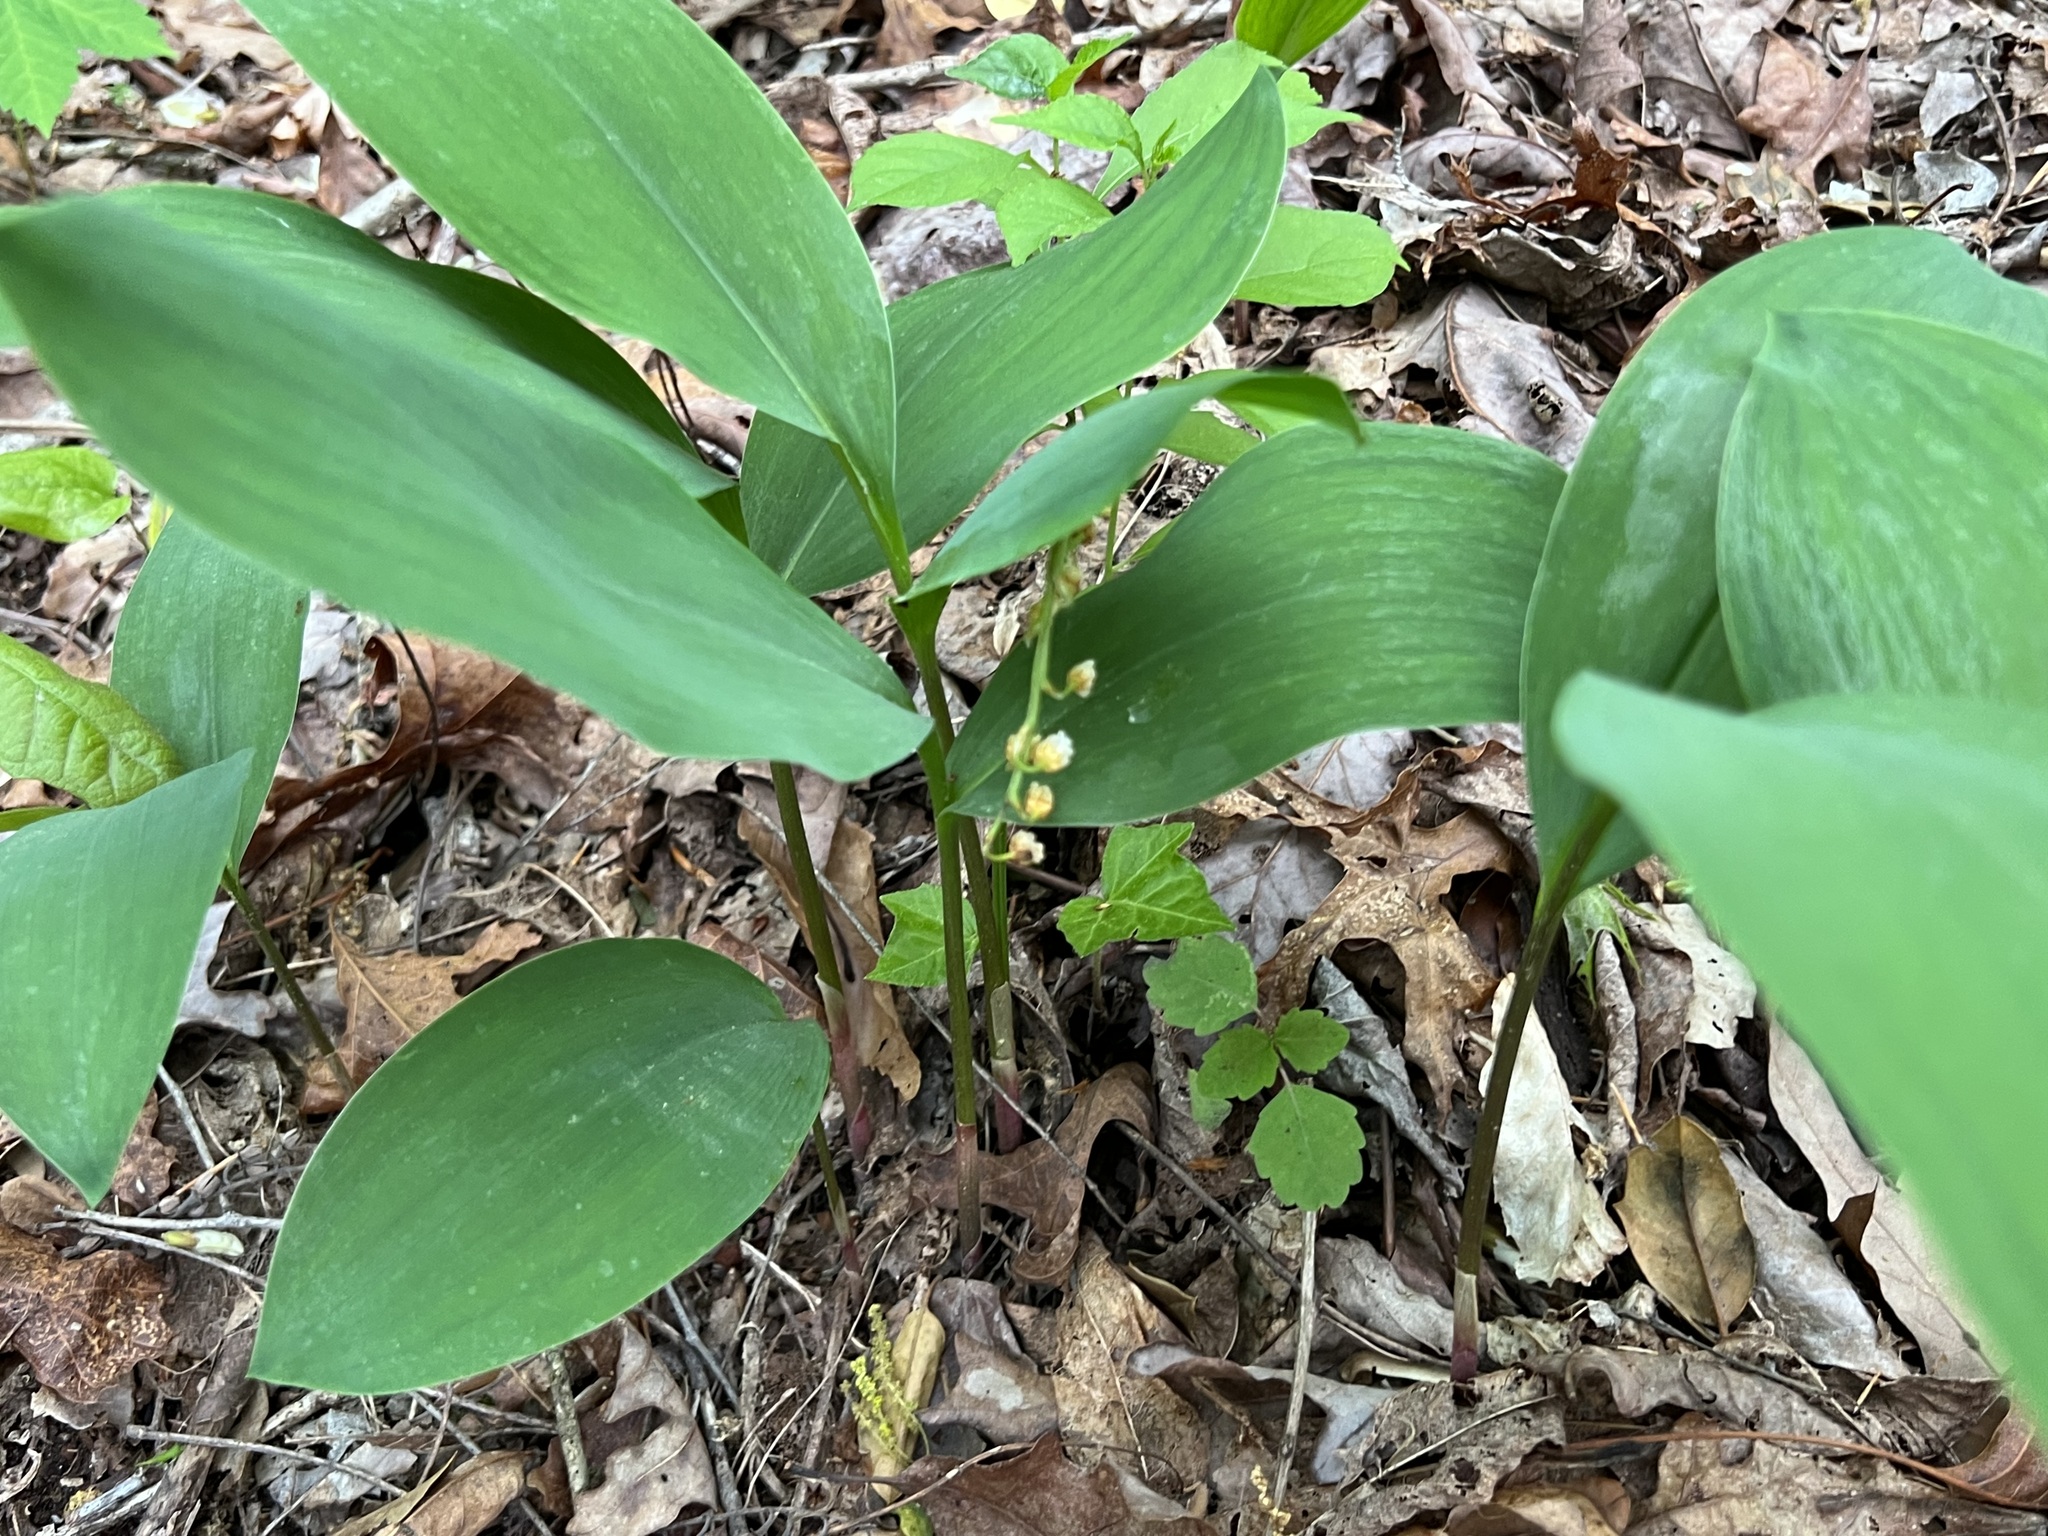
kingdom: Plantae
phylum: Tracheophyta
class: Liliopsida
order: Asparagales
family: Asparagaceae
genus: Convallaria
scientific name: Convallaria majalis
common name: Lily-of-the-valley
